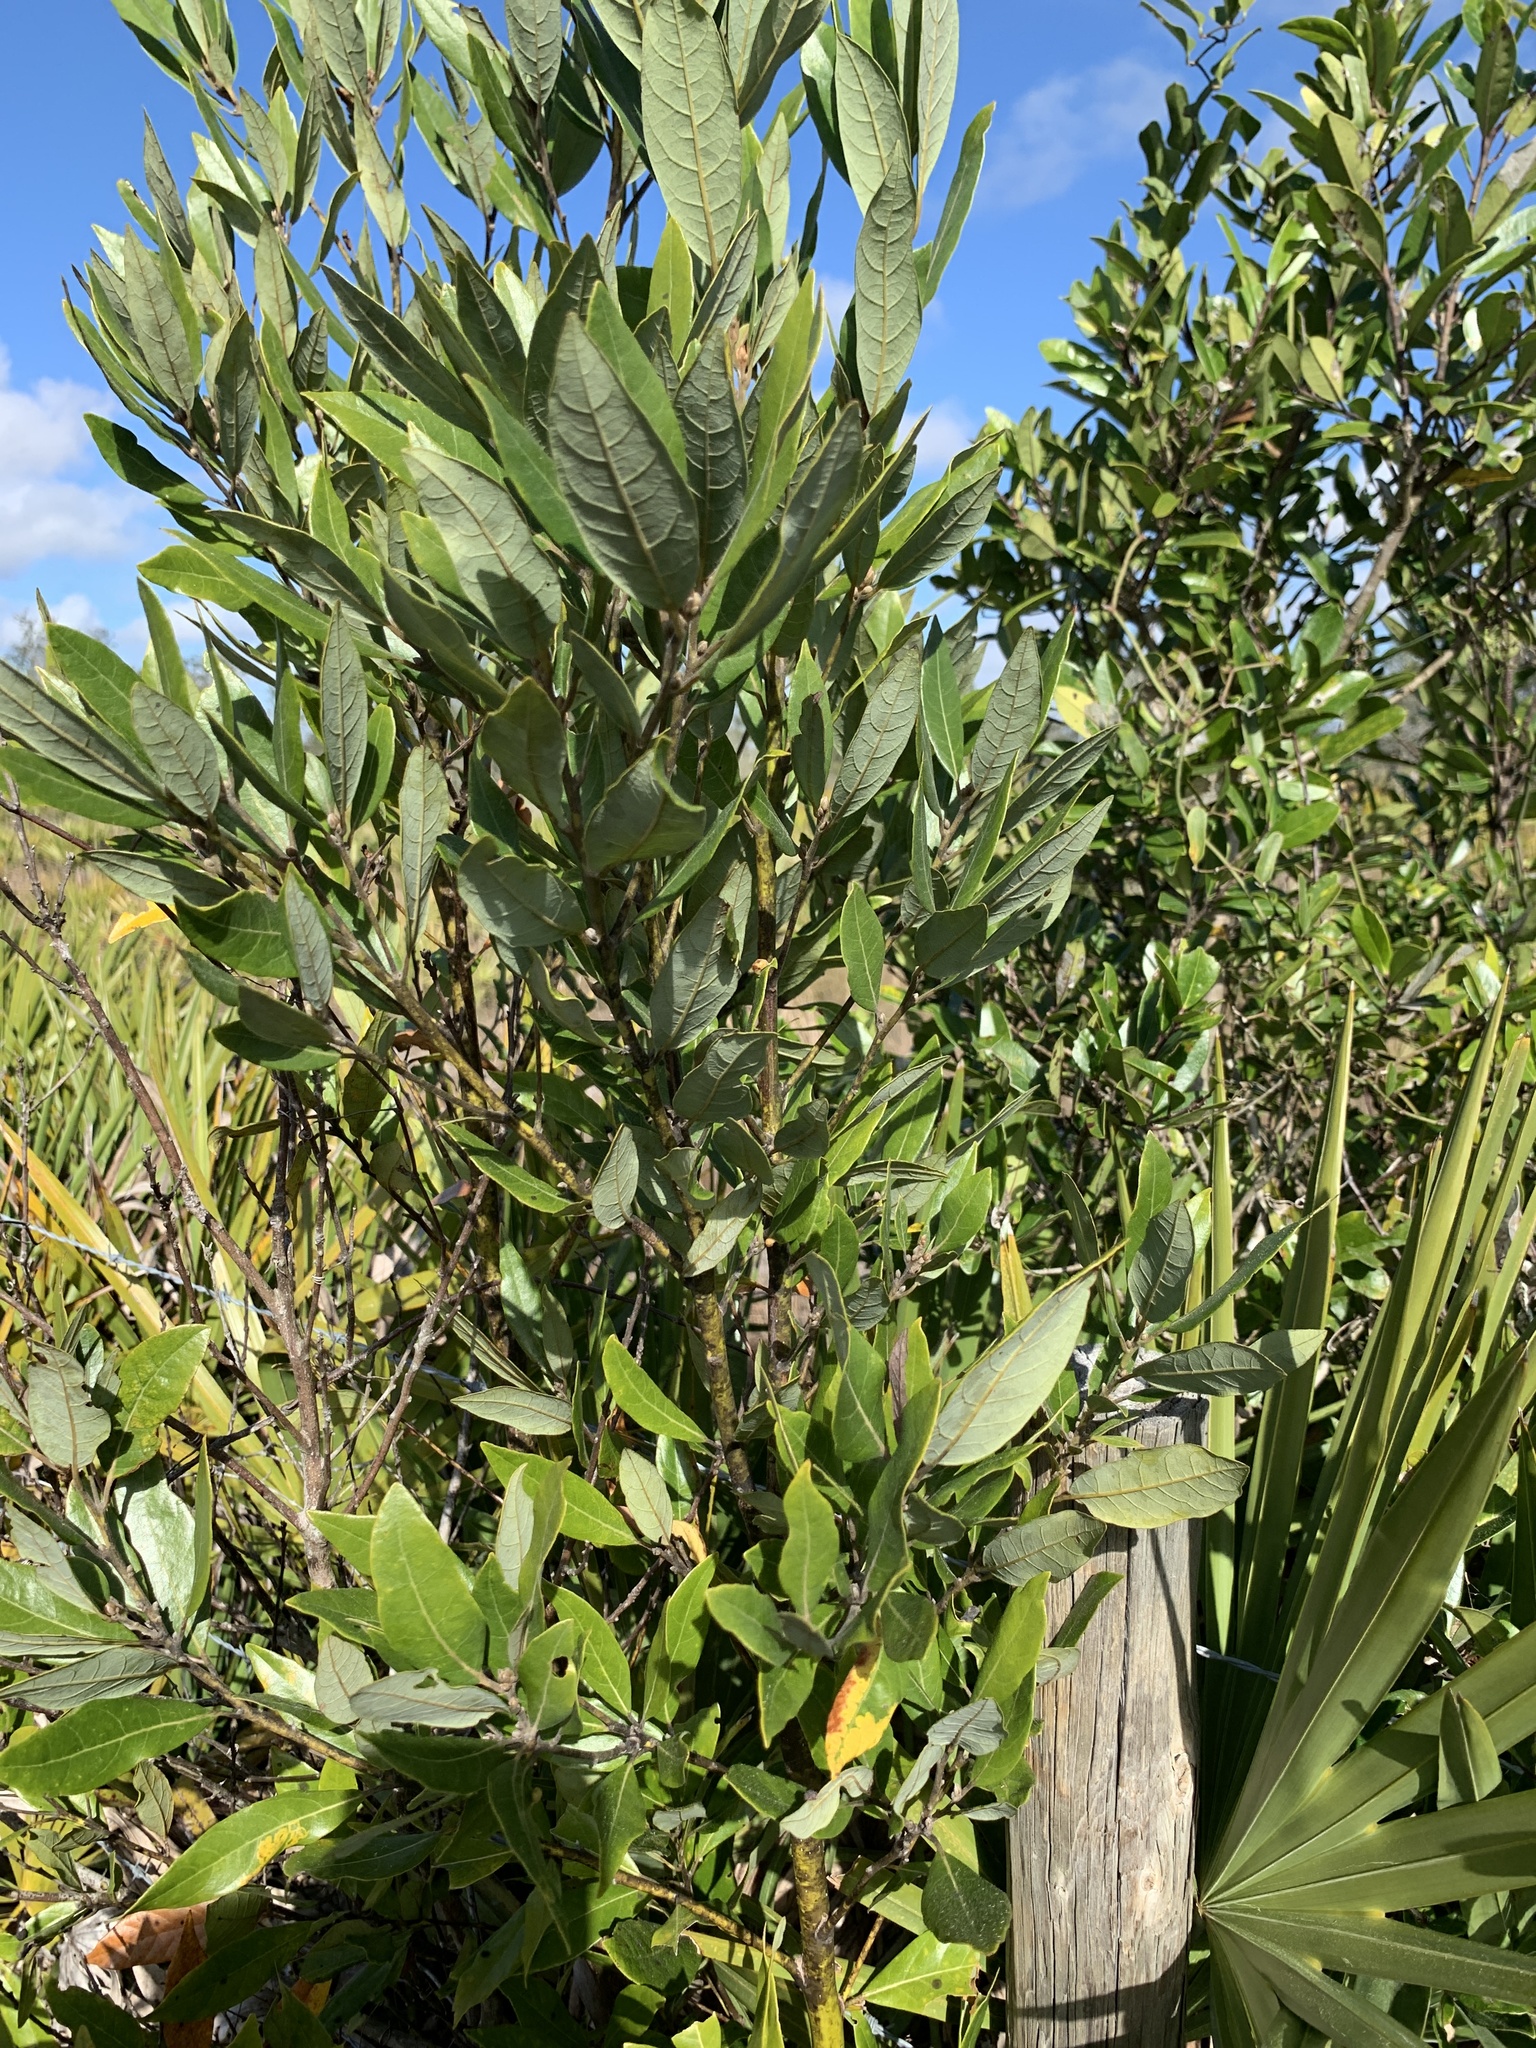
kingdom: Plantae
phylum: Tracheophyta
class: Magnoliopsida
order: Laurales
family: Lauraceae
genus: Persea
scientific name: Persea borbonia
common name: Redbay
